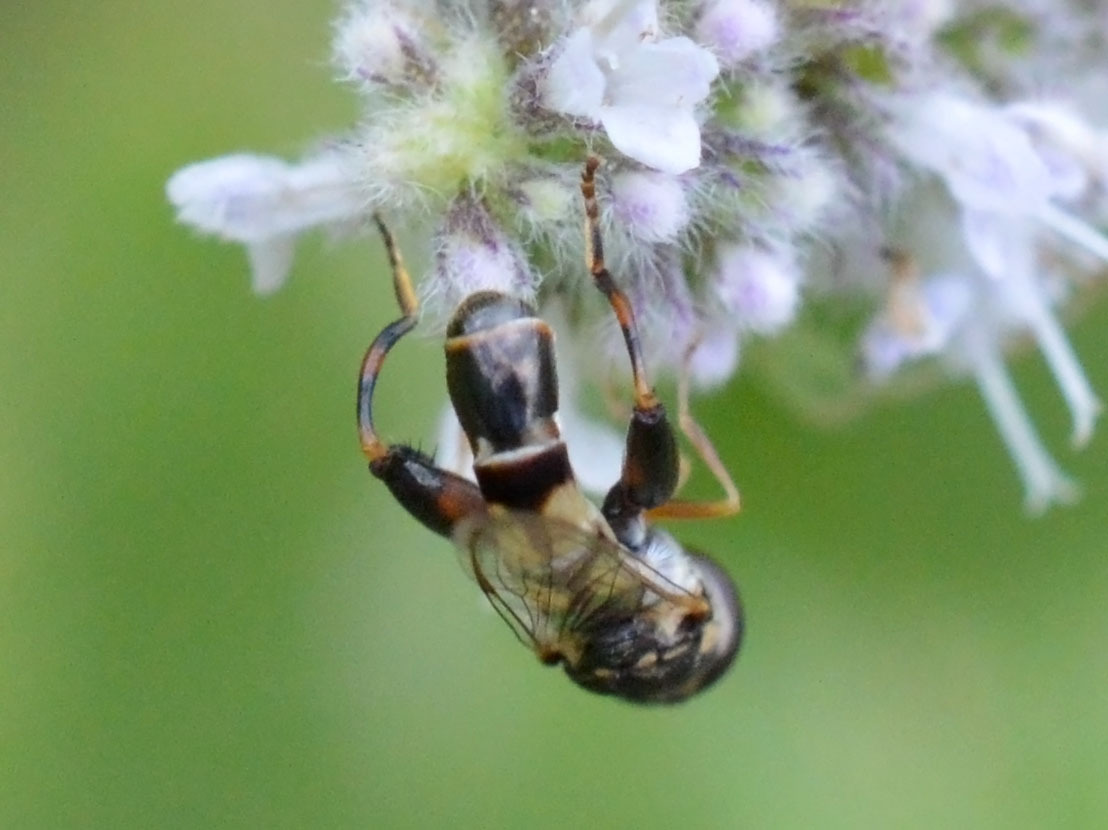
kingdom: Animalia
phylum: Arthropoda
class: Insecta
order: Diptera
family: Syrphidae
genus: Syritta
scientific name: Syritta pipiens
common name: Hover fly
